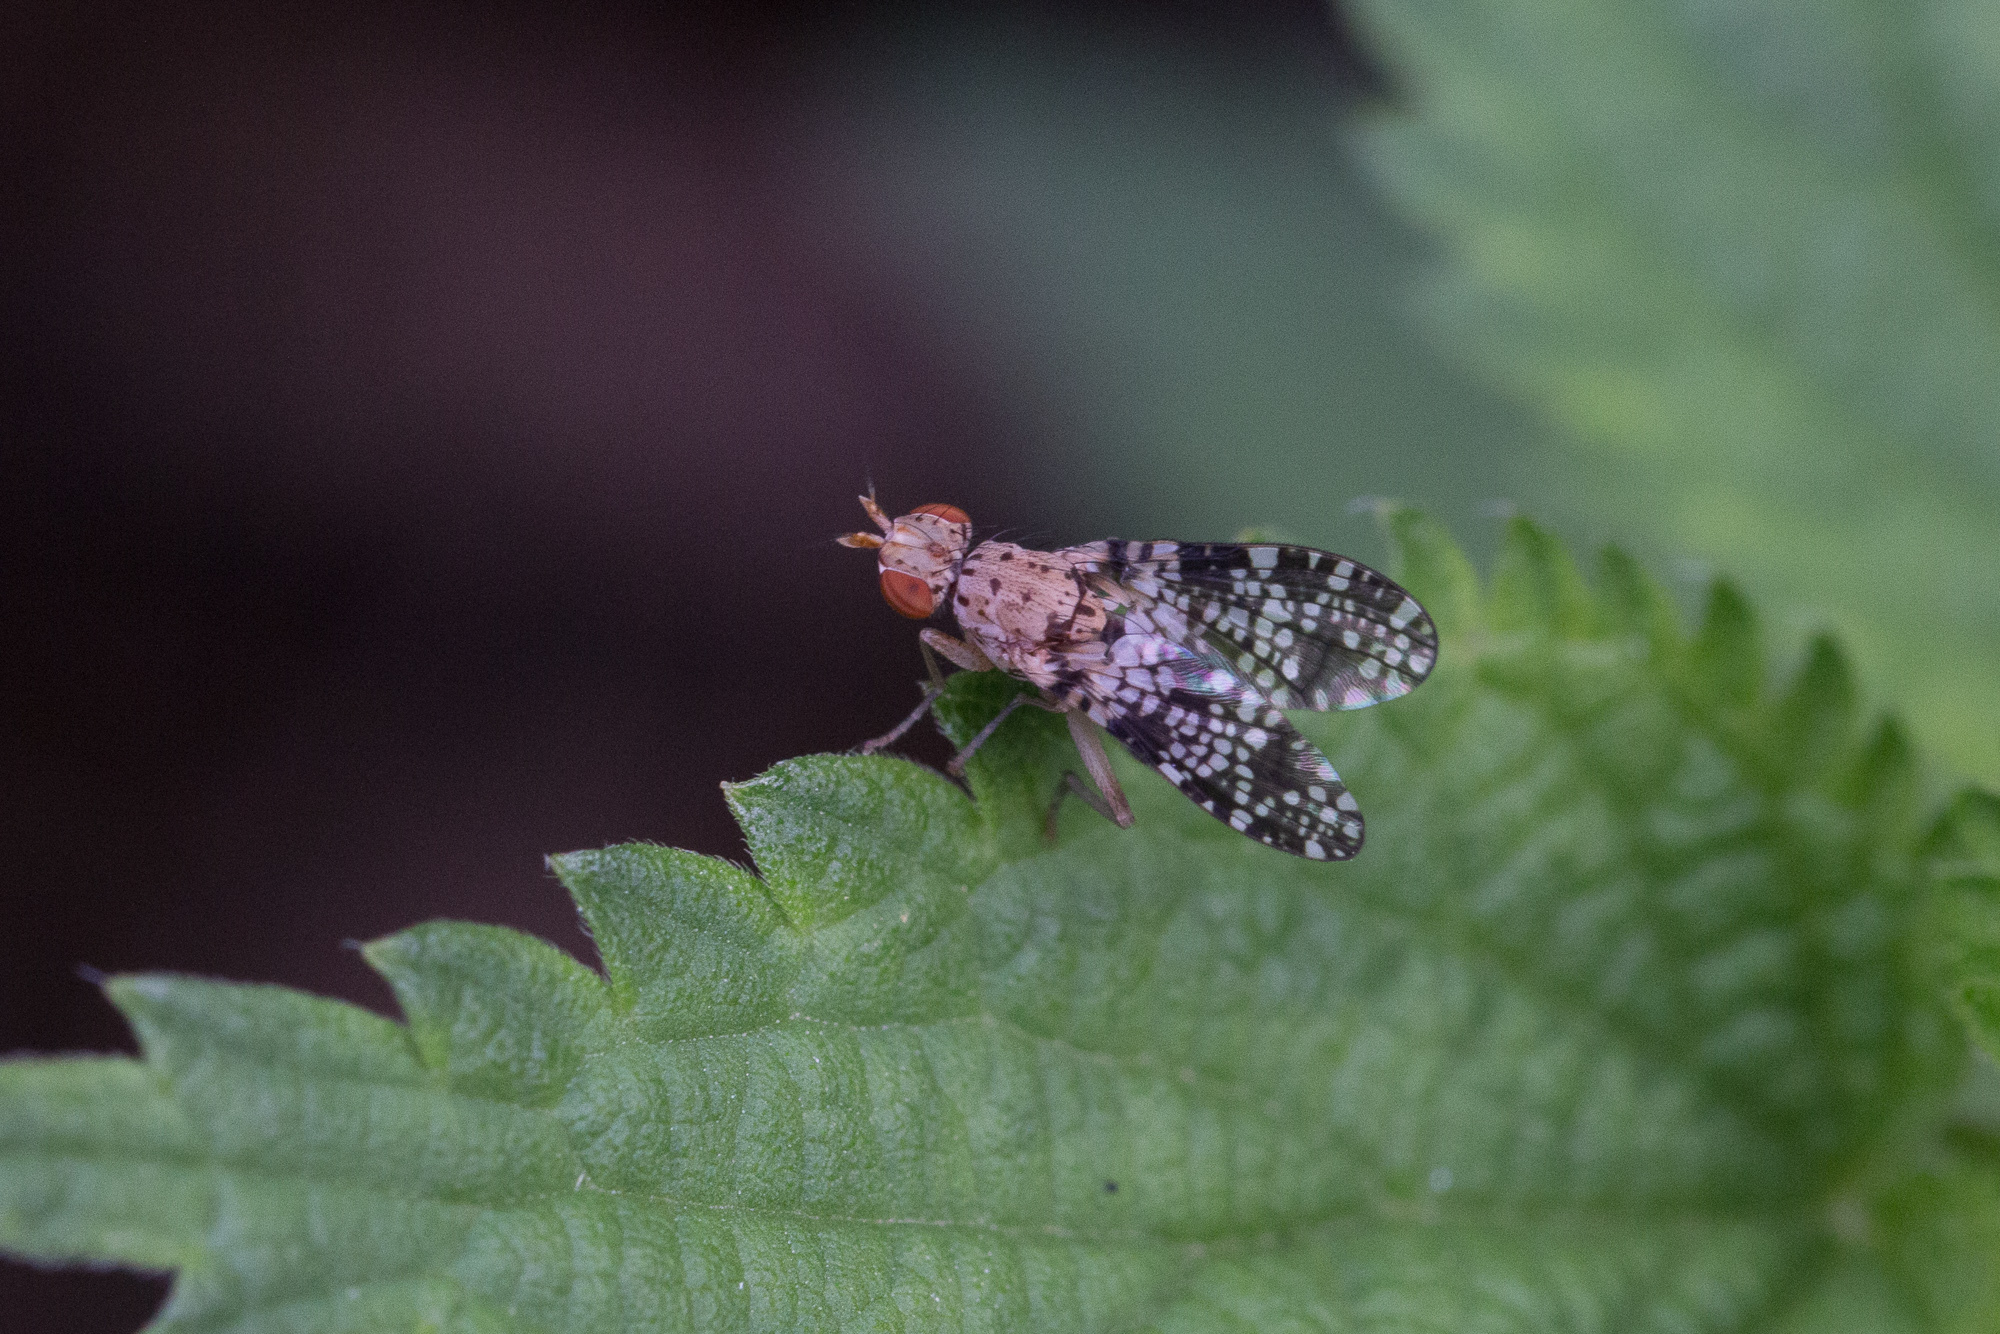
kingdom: Animalia
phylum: Arthropoda
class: Insecta
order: Diptera
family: Sciomyzidae
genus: Trypetoptera
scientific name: Trypetoptera punctulata
